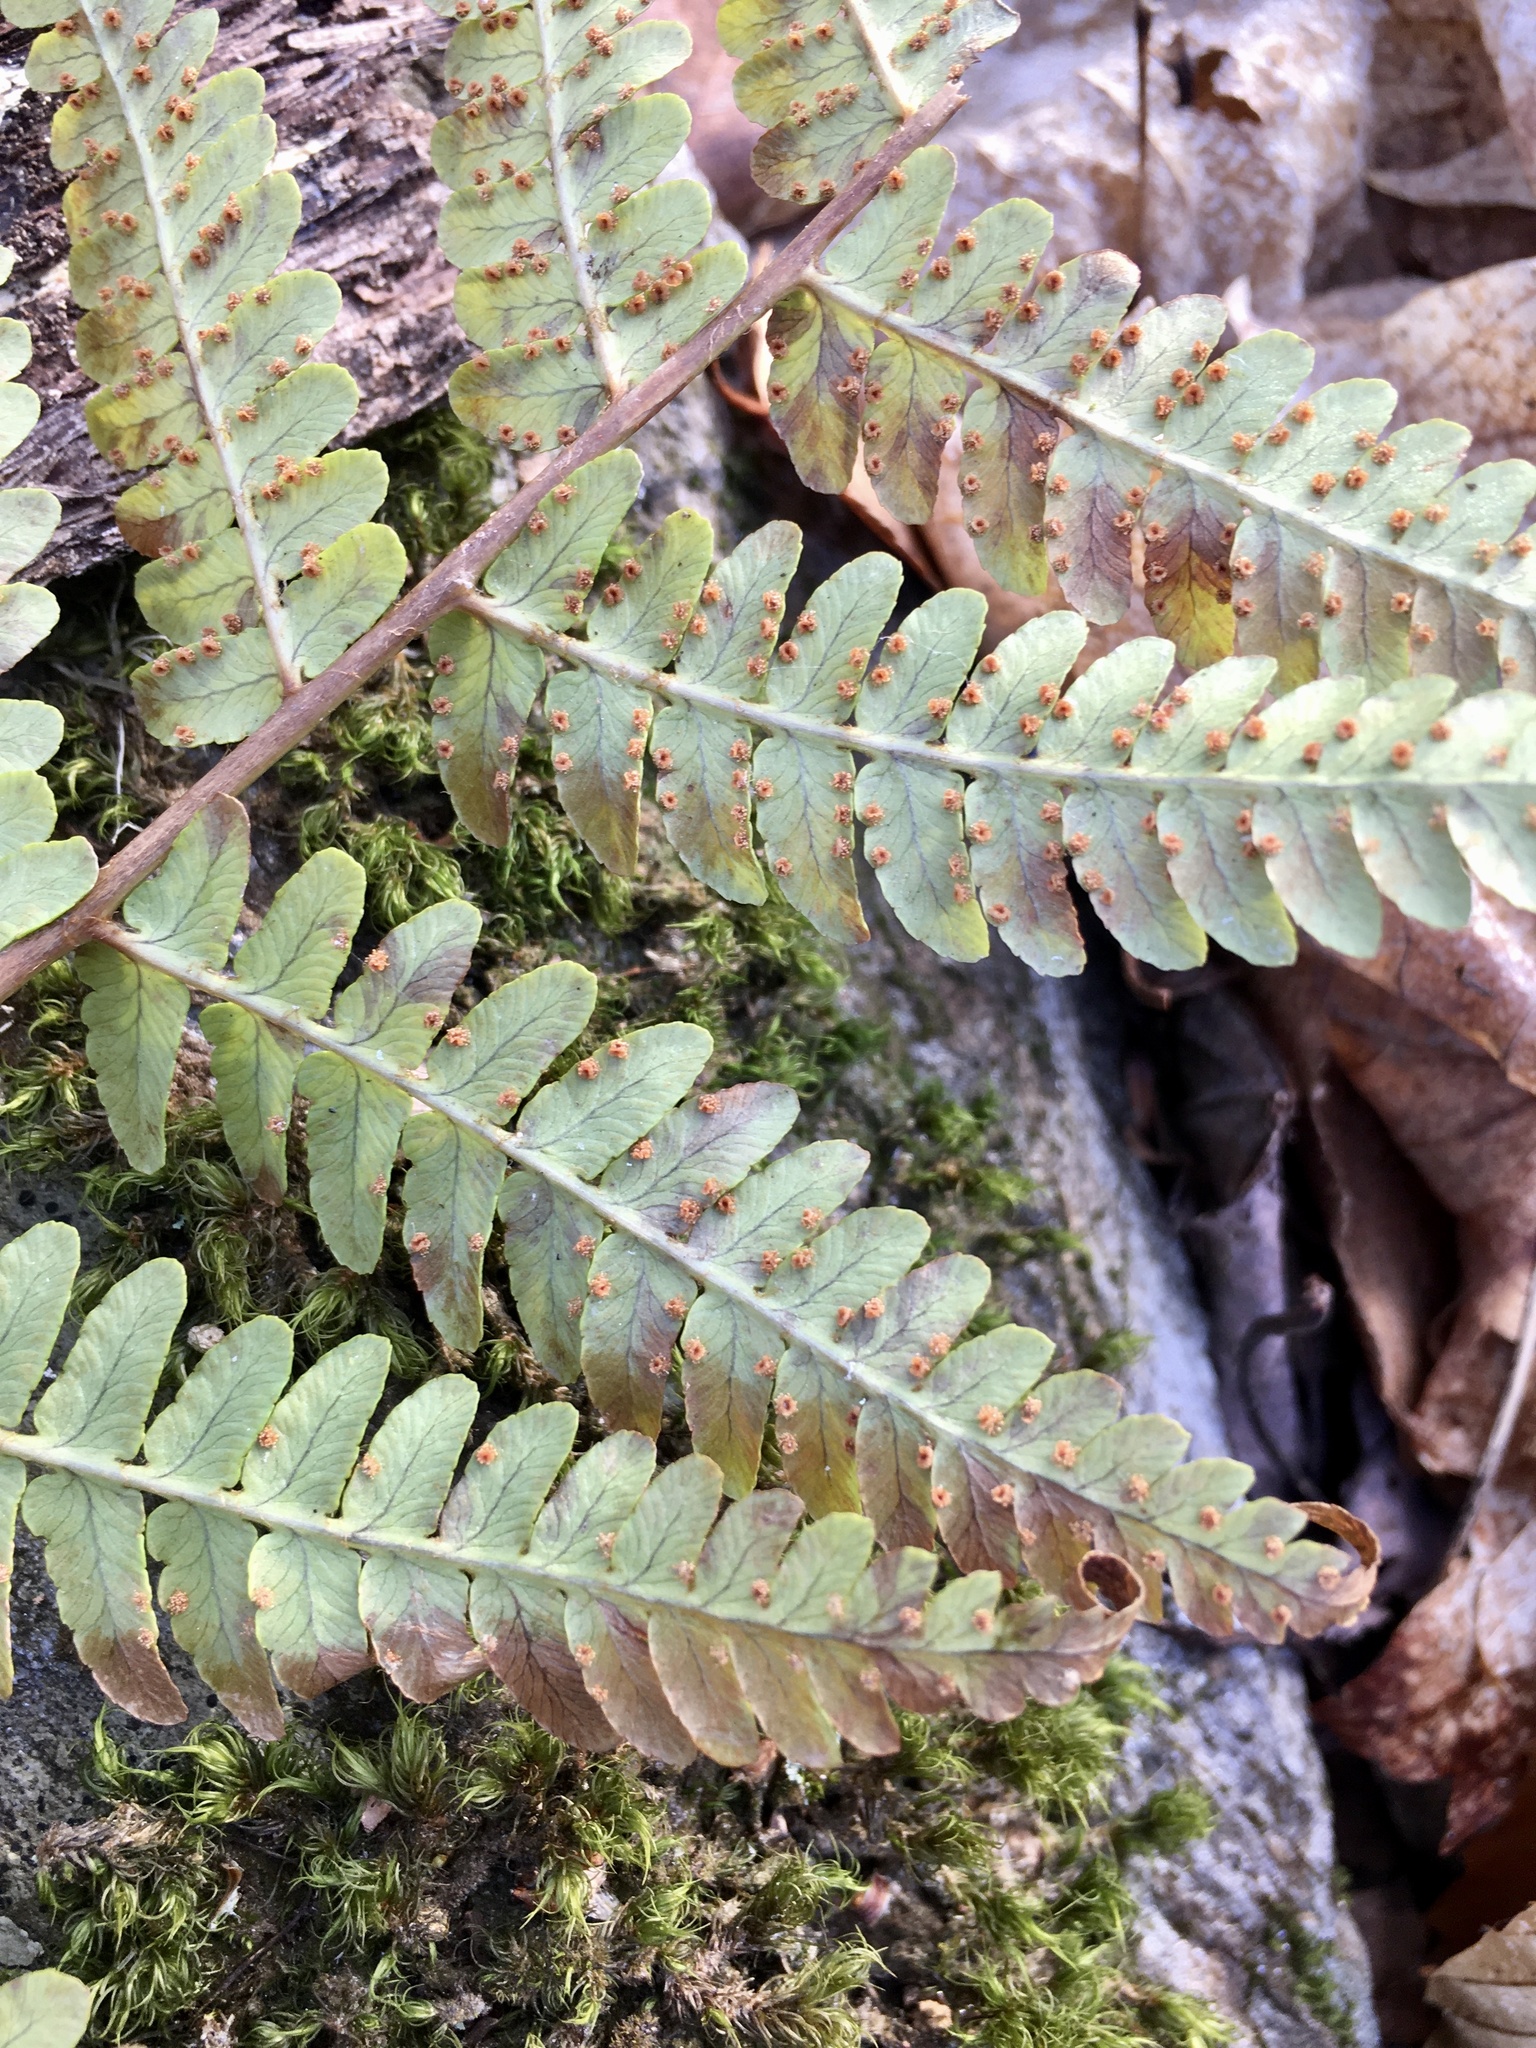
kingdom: Plantae
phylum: Tracheophyta
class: Polypodiopsida
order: Polypodiales
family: Dryopteridaceae
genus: Dryopteris
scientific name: Dryopteris marginalis
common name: Marginal wood fern
